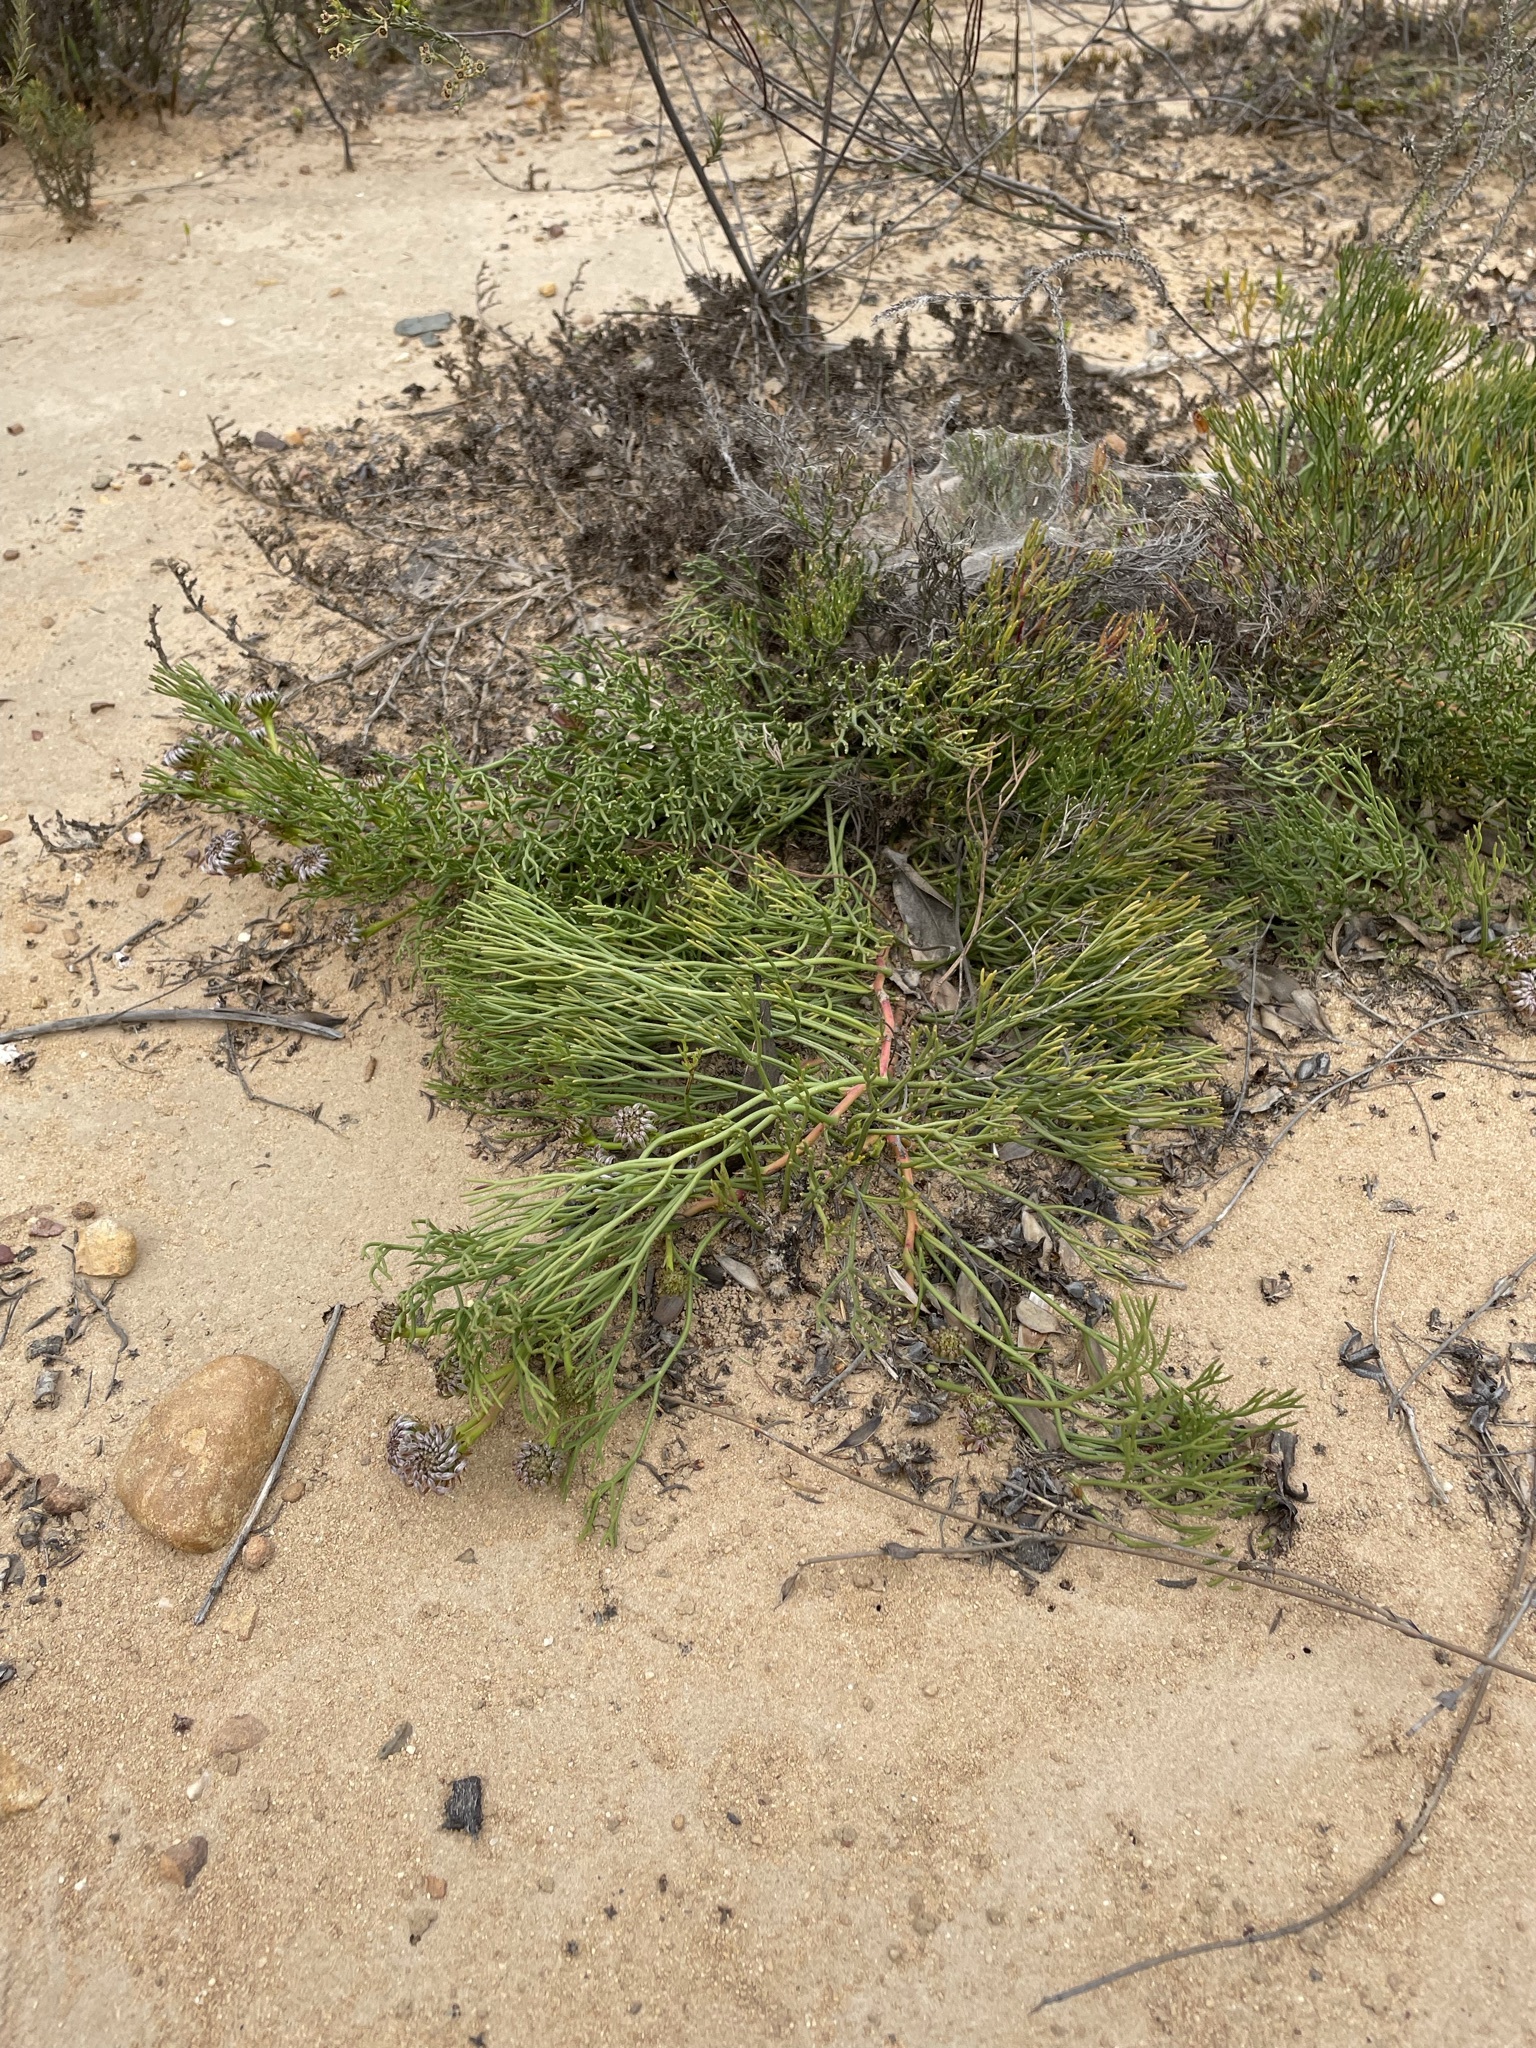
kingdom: Plantae
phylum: Tracheophyta
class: Magnoliopsida
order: Proteales
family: Proteaceae
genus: Serruria
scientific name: Serruria effusa
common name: Candelabra spiderhead
